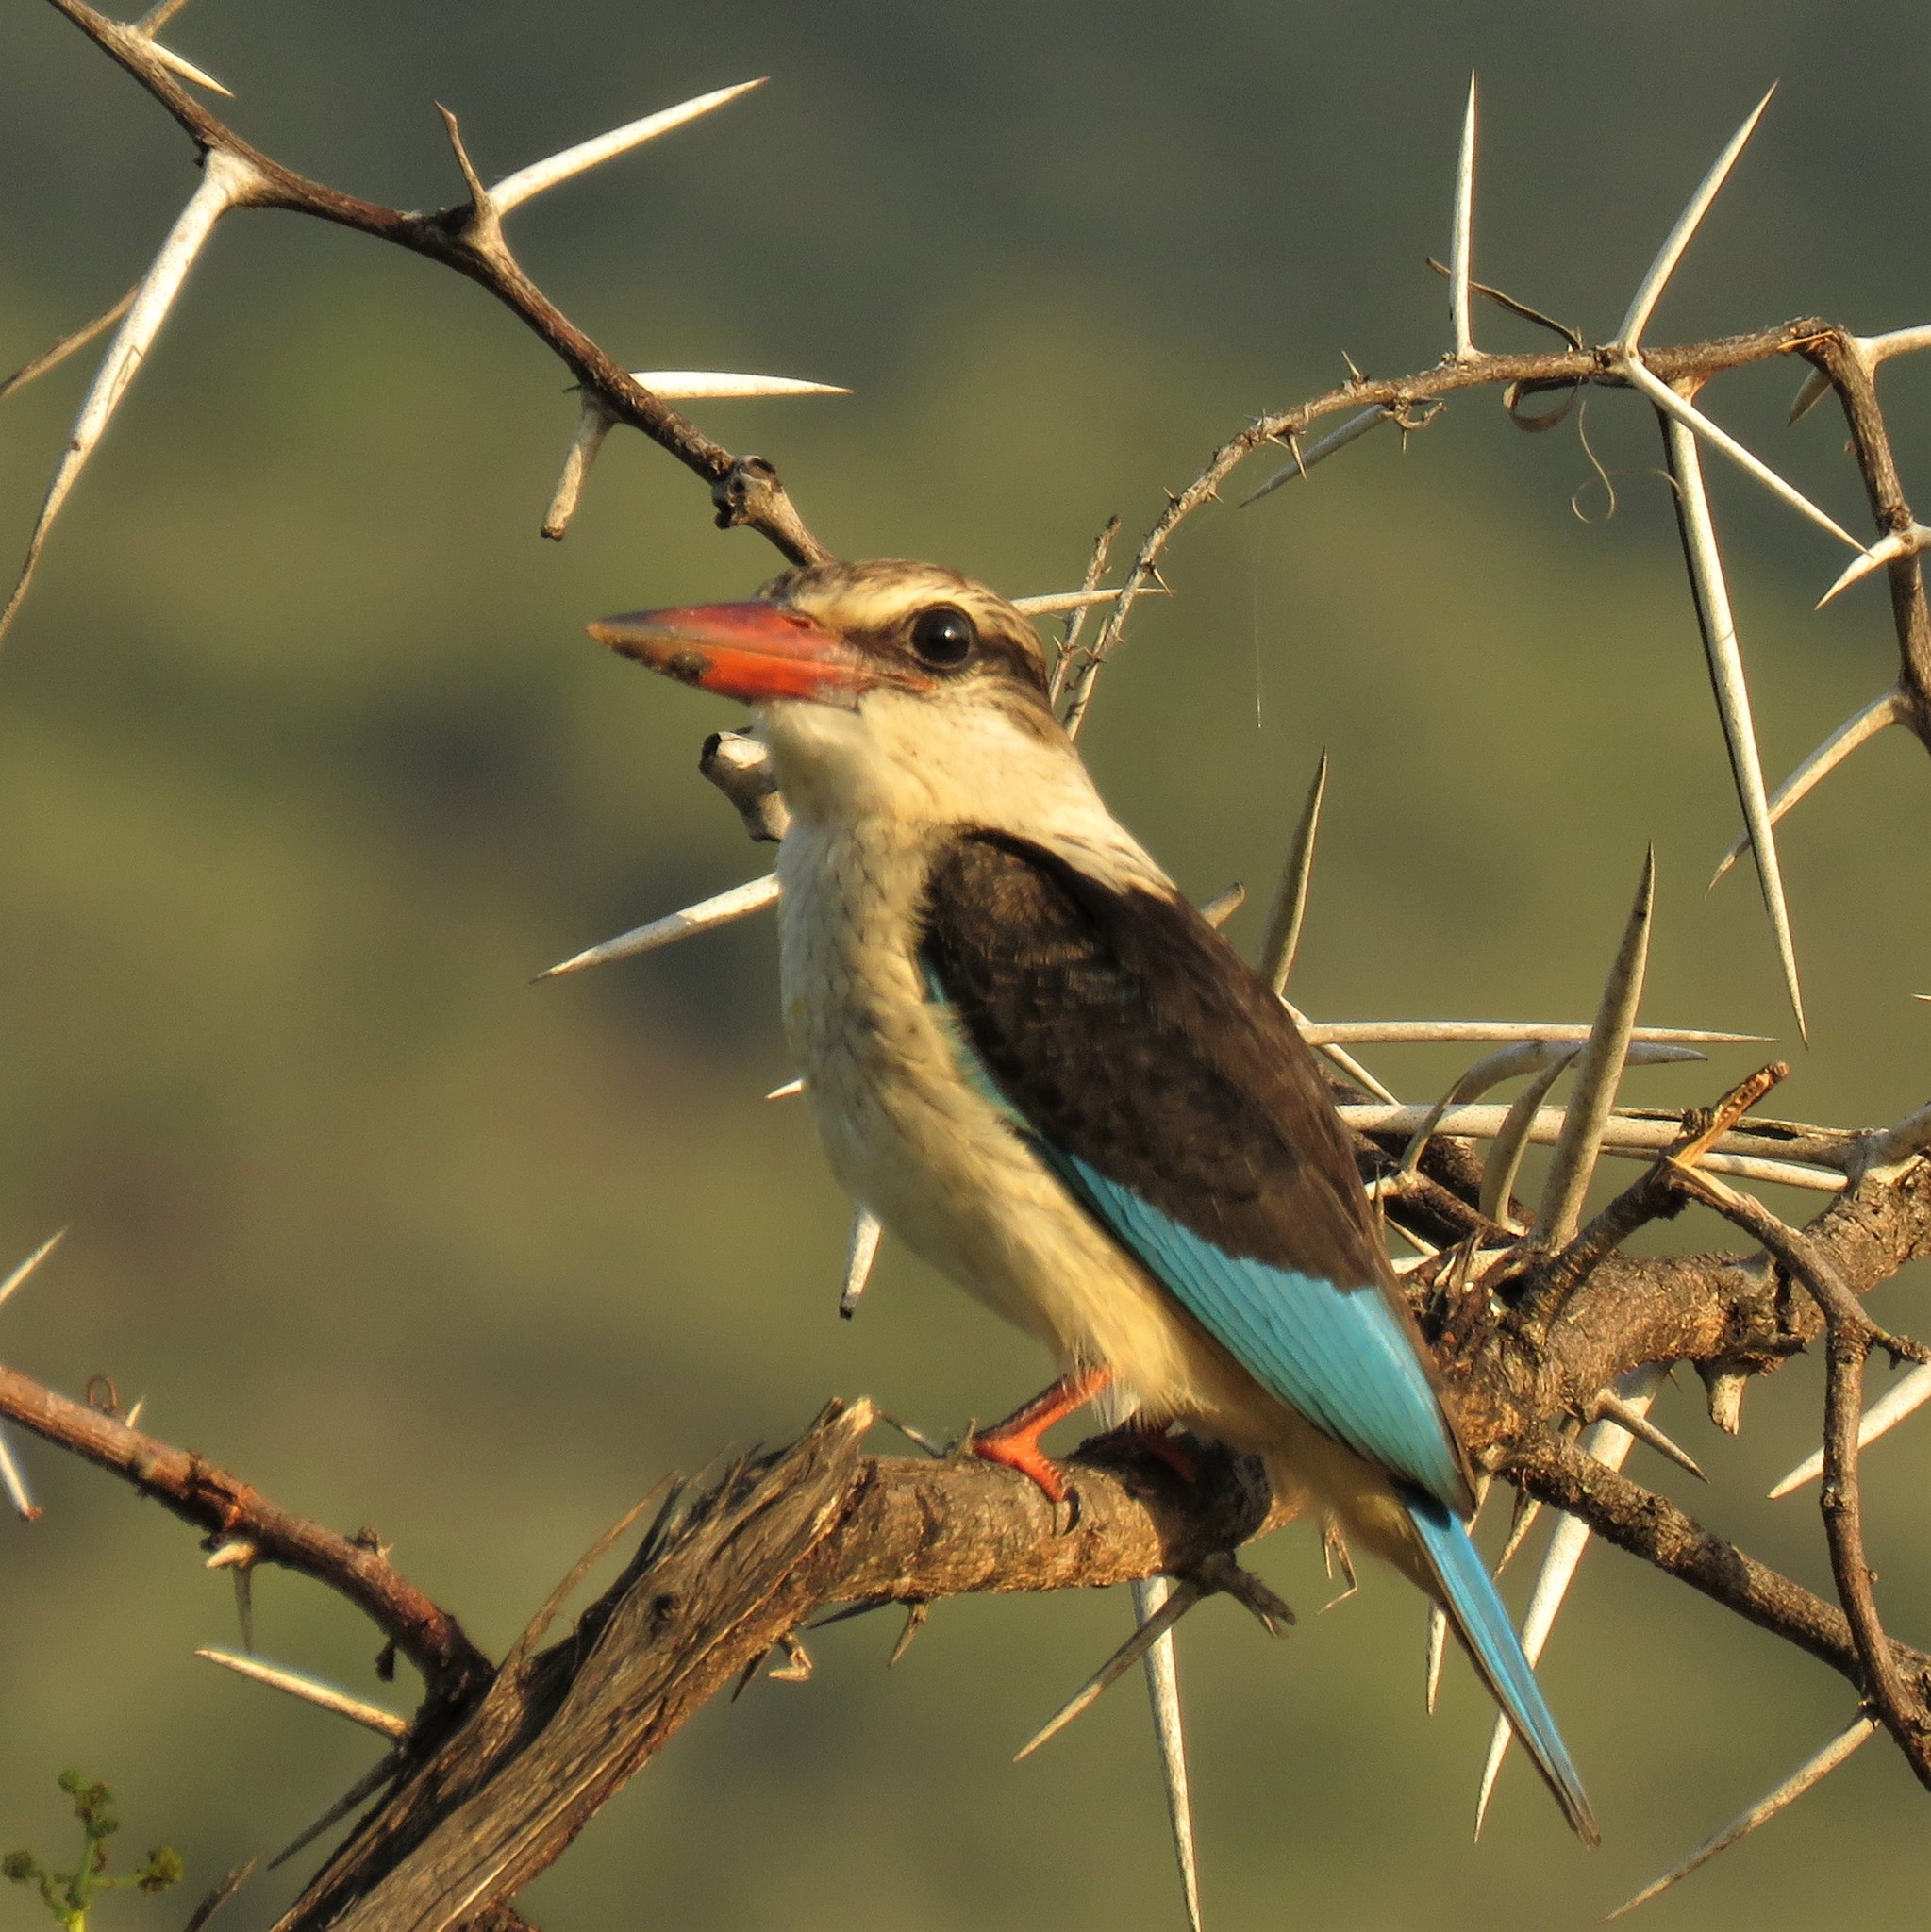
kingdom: Animalia
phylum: Chordata
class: Aves
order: Coraciiformes
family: Alcedinidae
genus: Halcyon
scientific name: Halcyon albiventris
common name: Brown-hooded kingfisher
